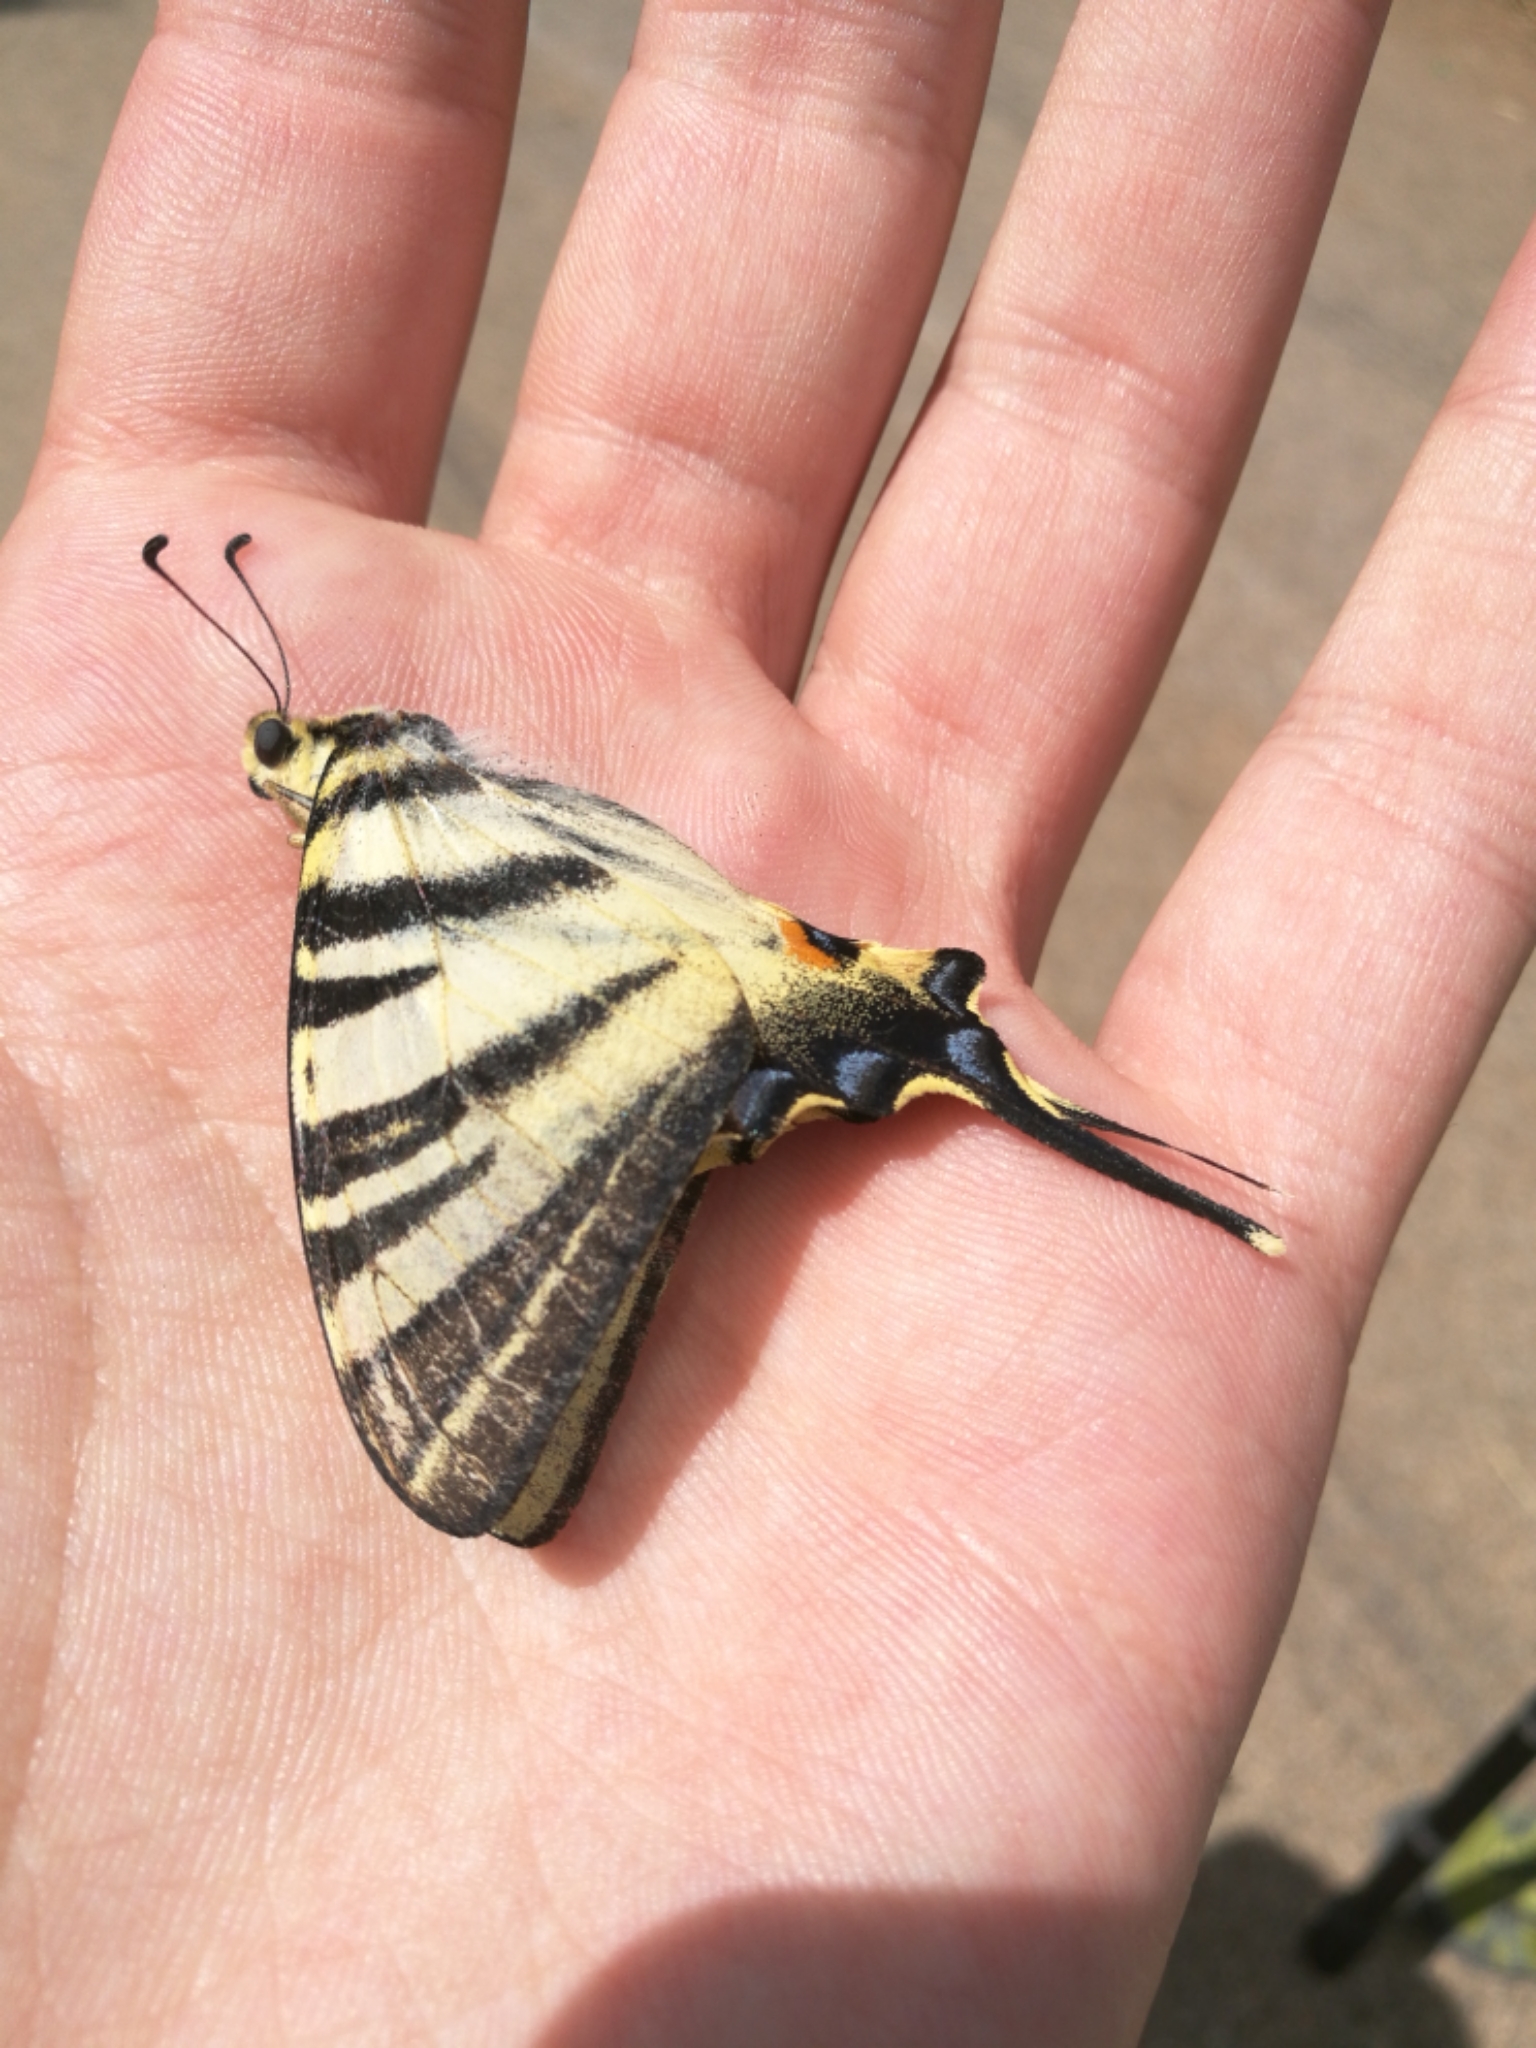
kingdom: Animalia
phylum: Arthropoda
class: Insecta
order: Lepidoptera
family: Papilionidae
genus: Iphiclides
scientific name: Iphiclides podalirius
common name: Scarce swallowtail
